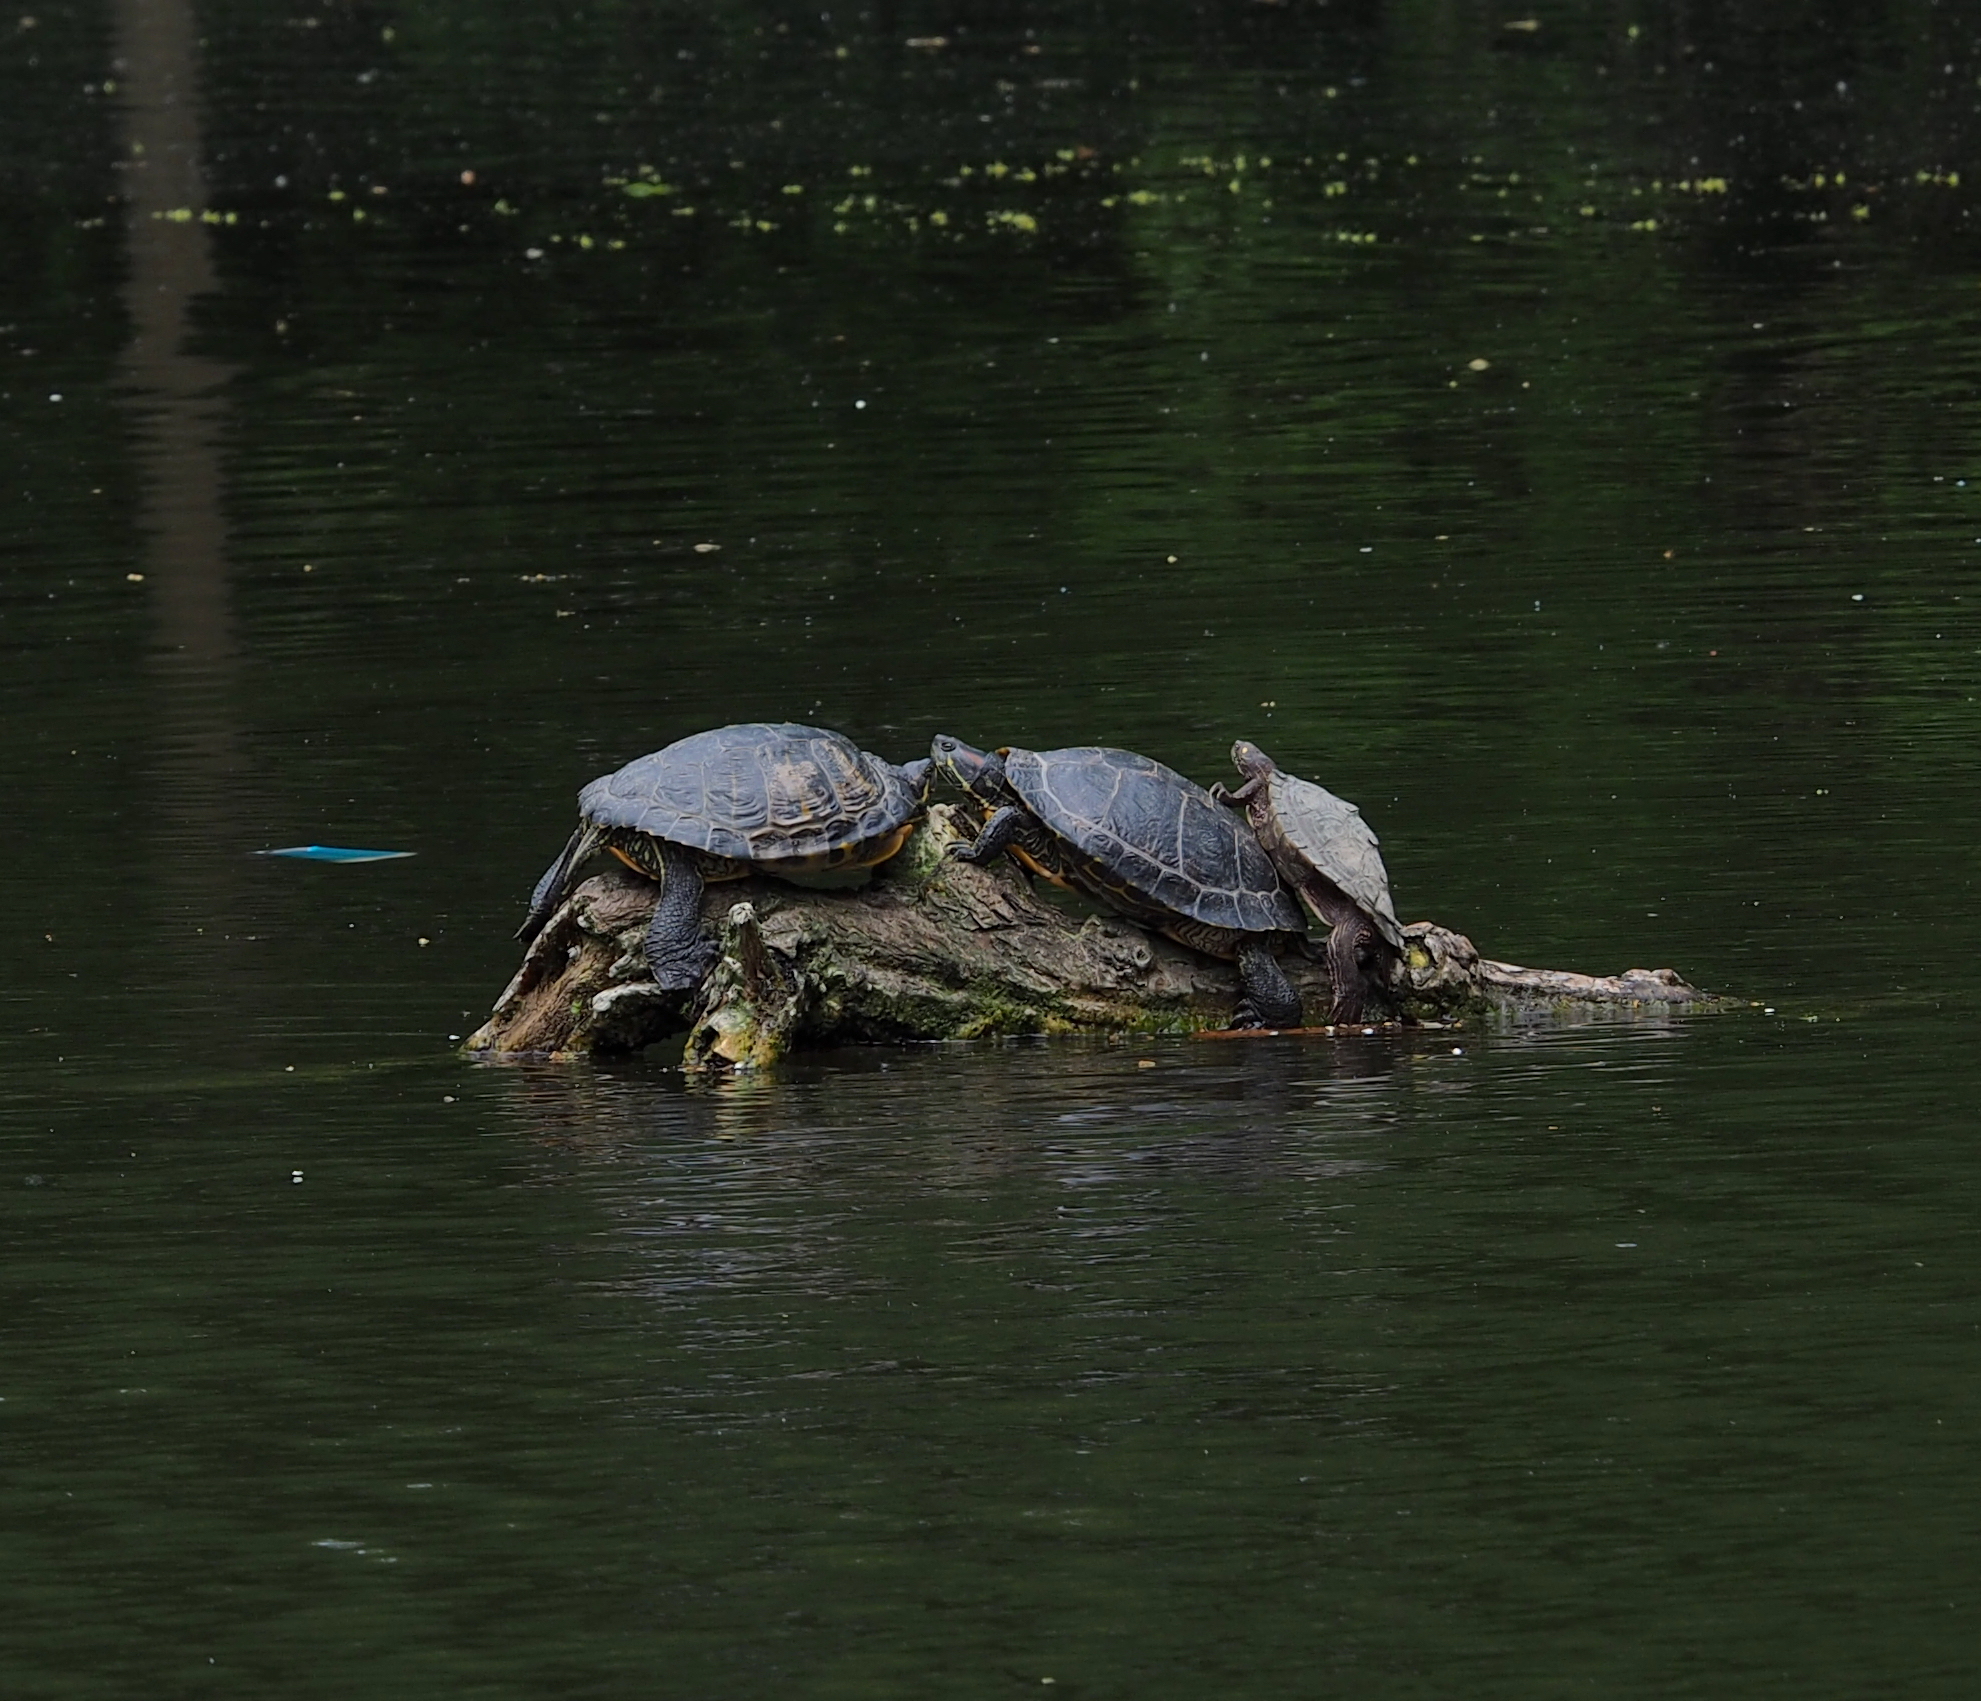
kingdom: Animalia
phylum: Chordata
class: Testudines
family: Emydidae
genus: Trachemys
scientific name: Trachemys scripta
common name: Slider
